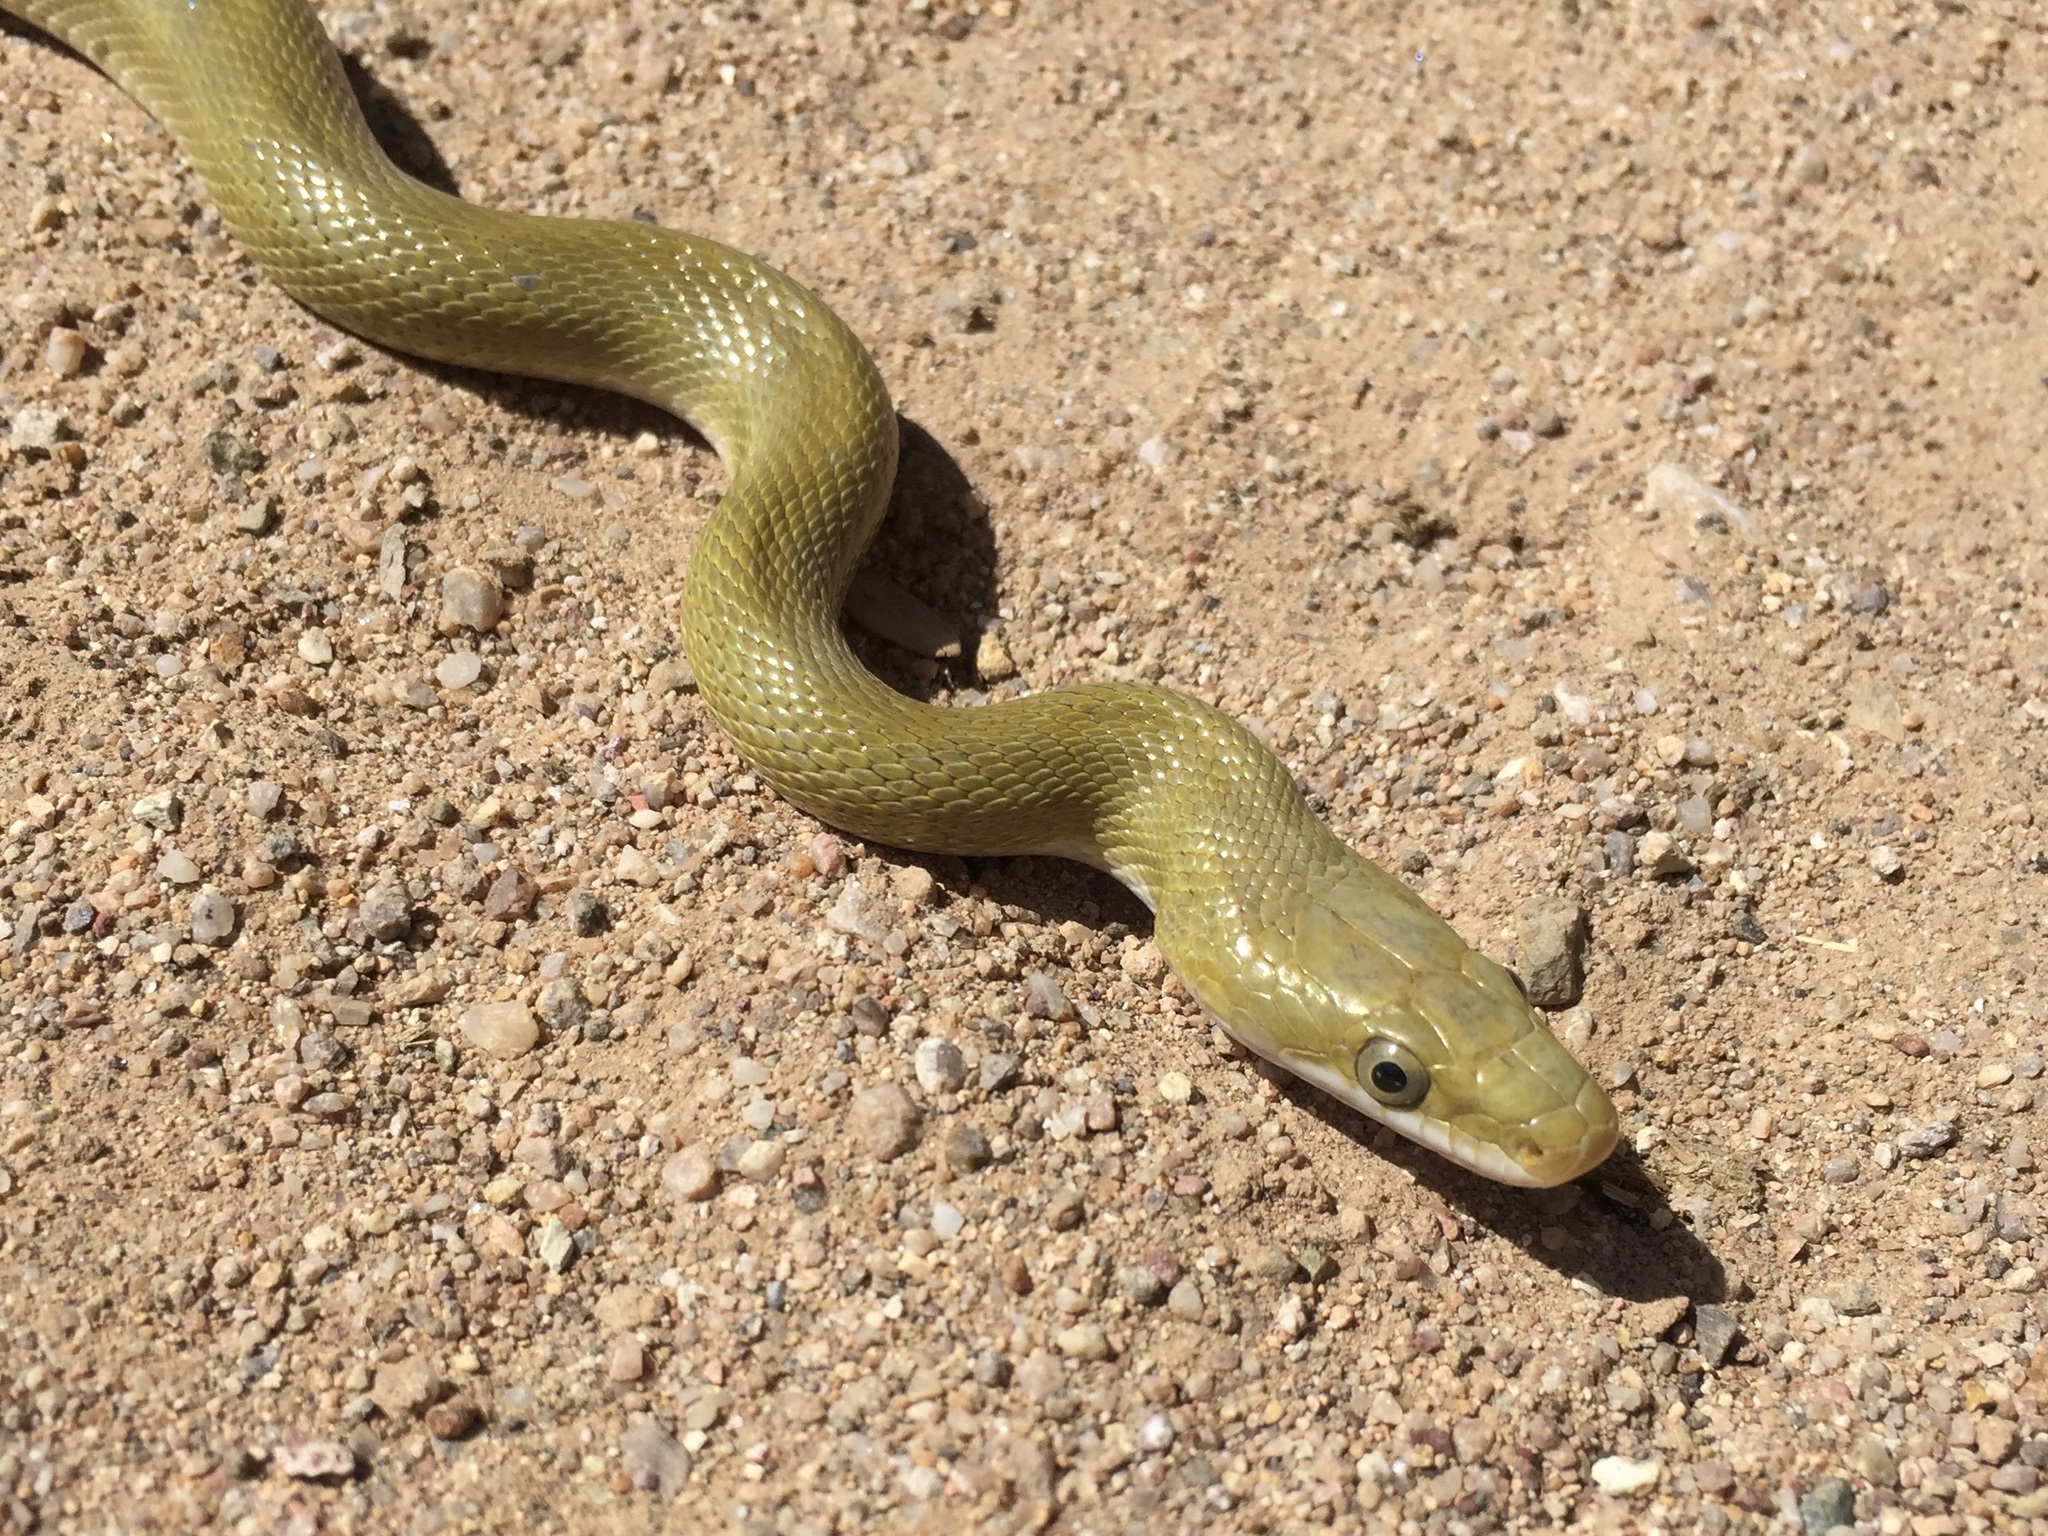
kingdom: Animalia
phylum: Chordata
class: Squamata
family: Colubridae
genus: Senticolis
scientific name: Senticolis triaspis
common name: Green rat snake
